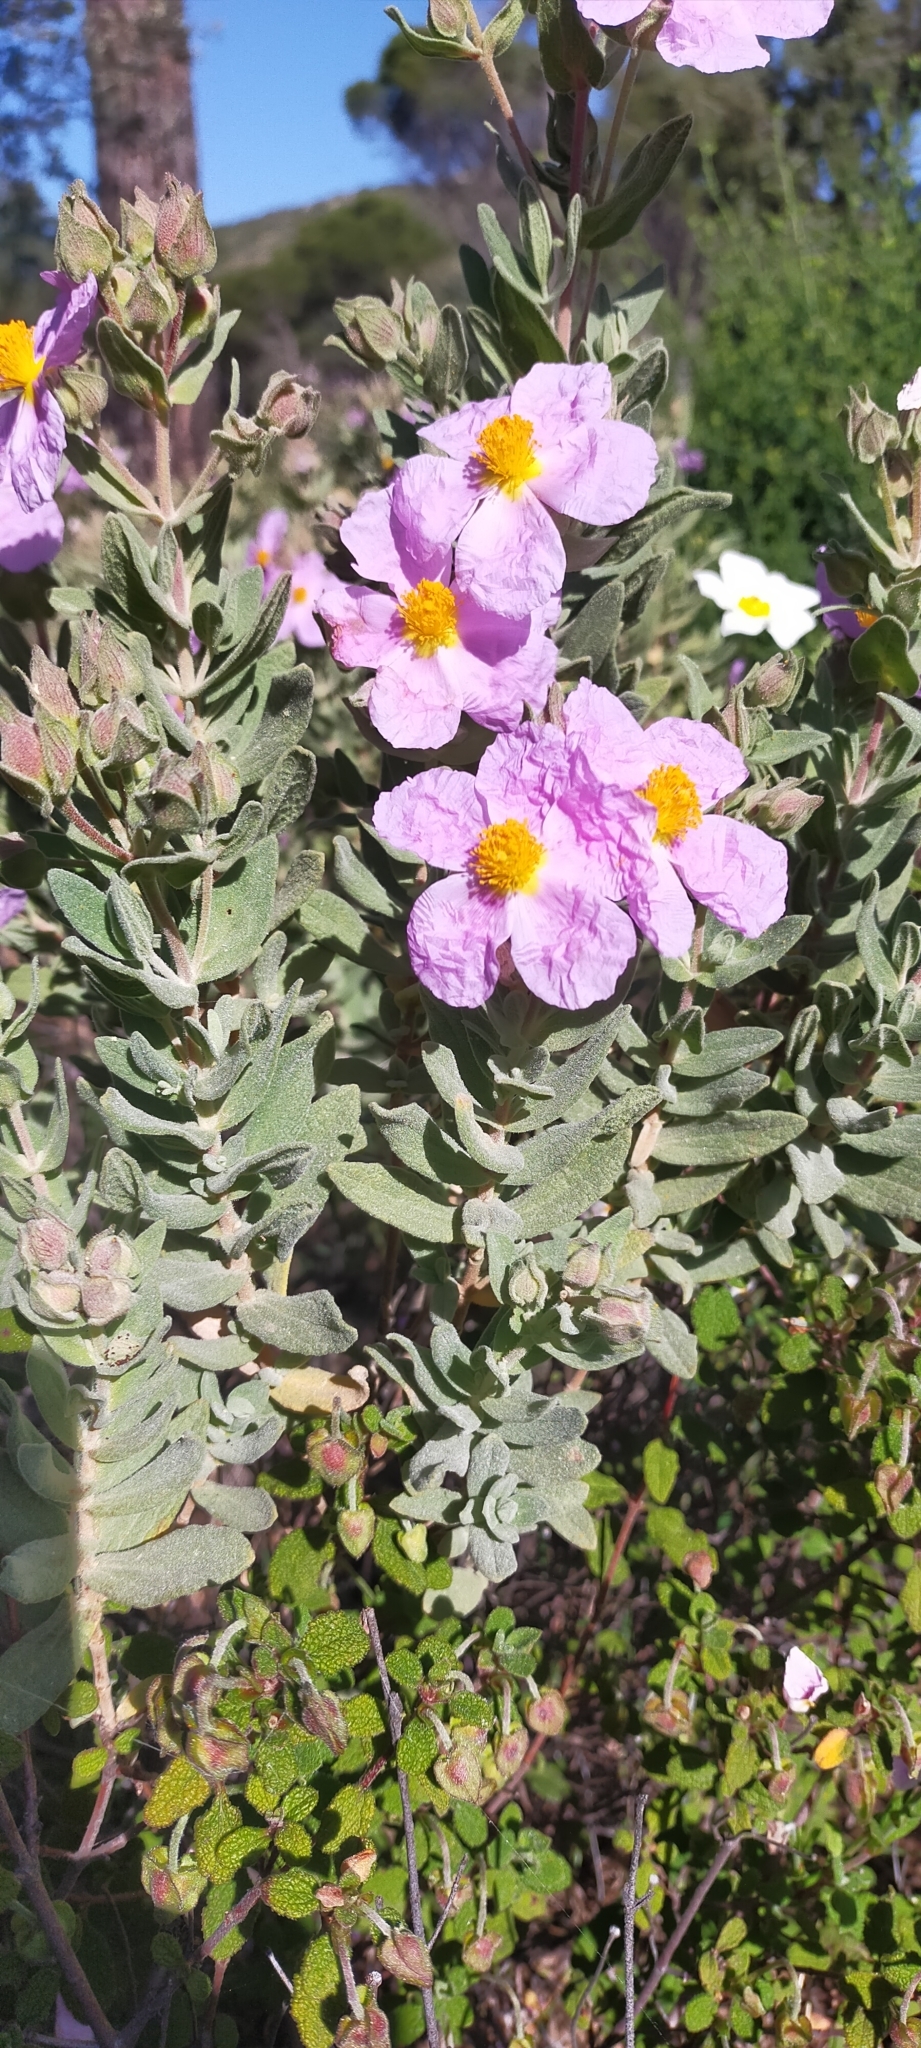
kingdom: Plantae
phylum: Tracheophyta
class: Magnoliopsida
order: Malvales
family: Cistaceae
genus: Cistus
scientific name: Cistus albidus
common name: White-leaf rock-rose
